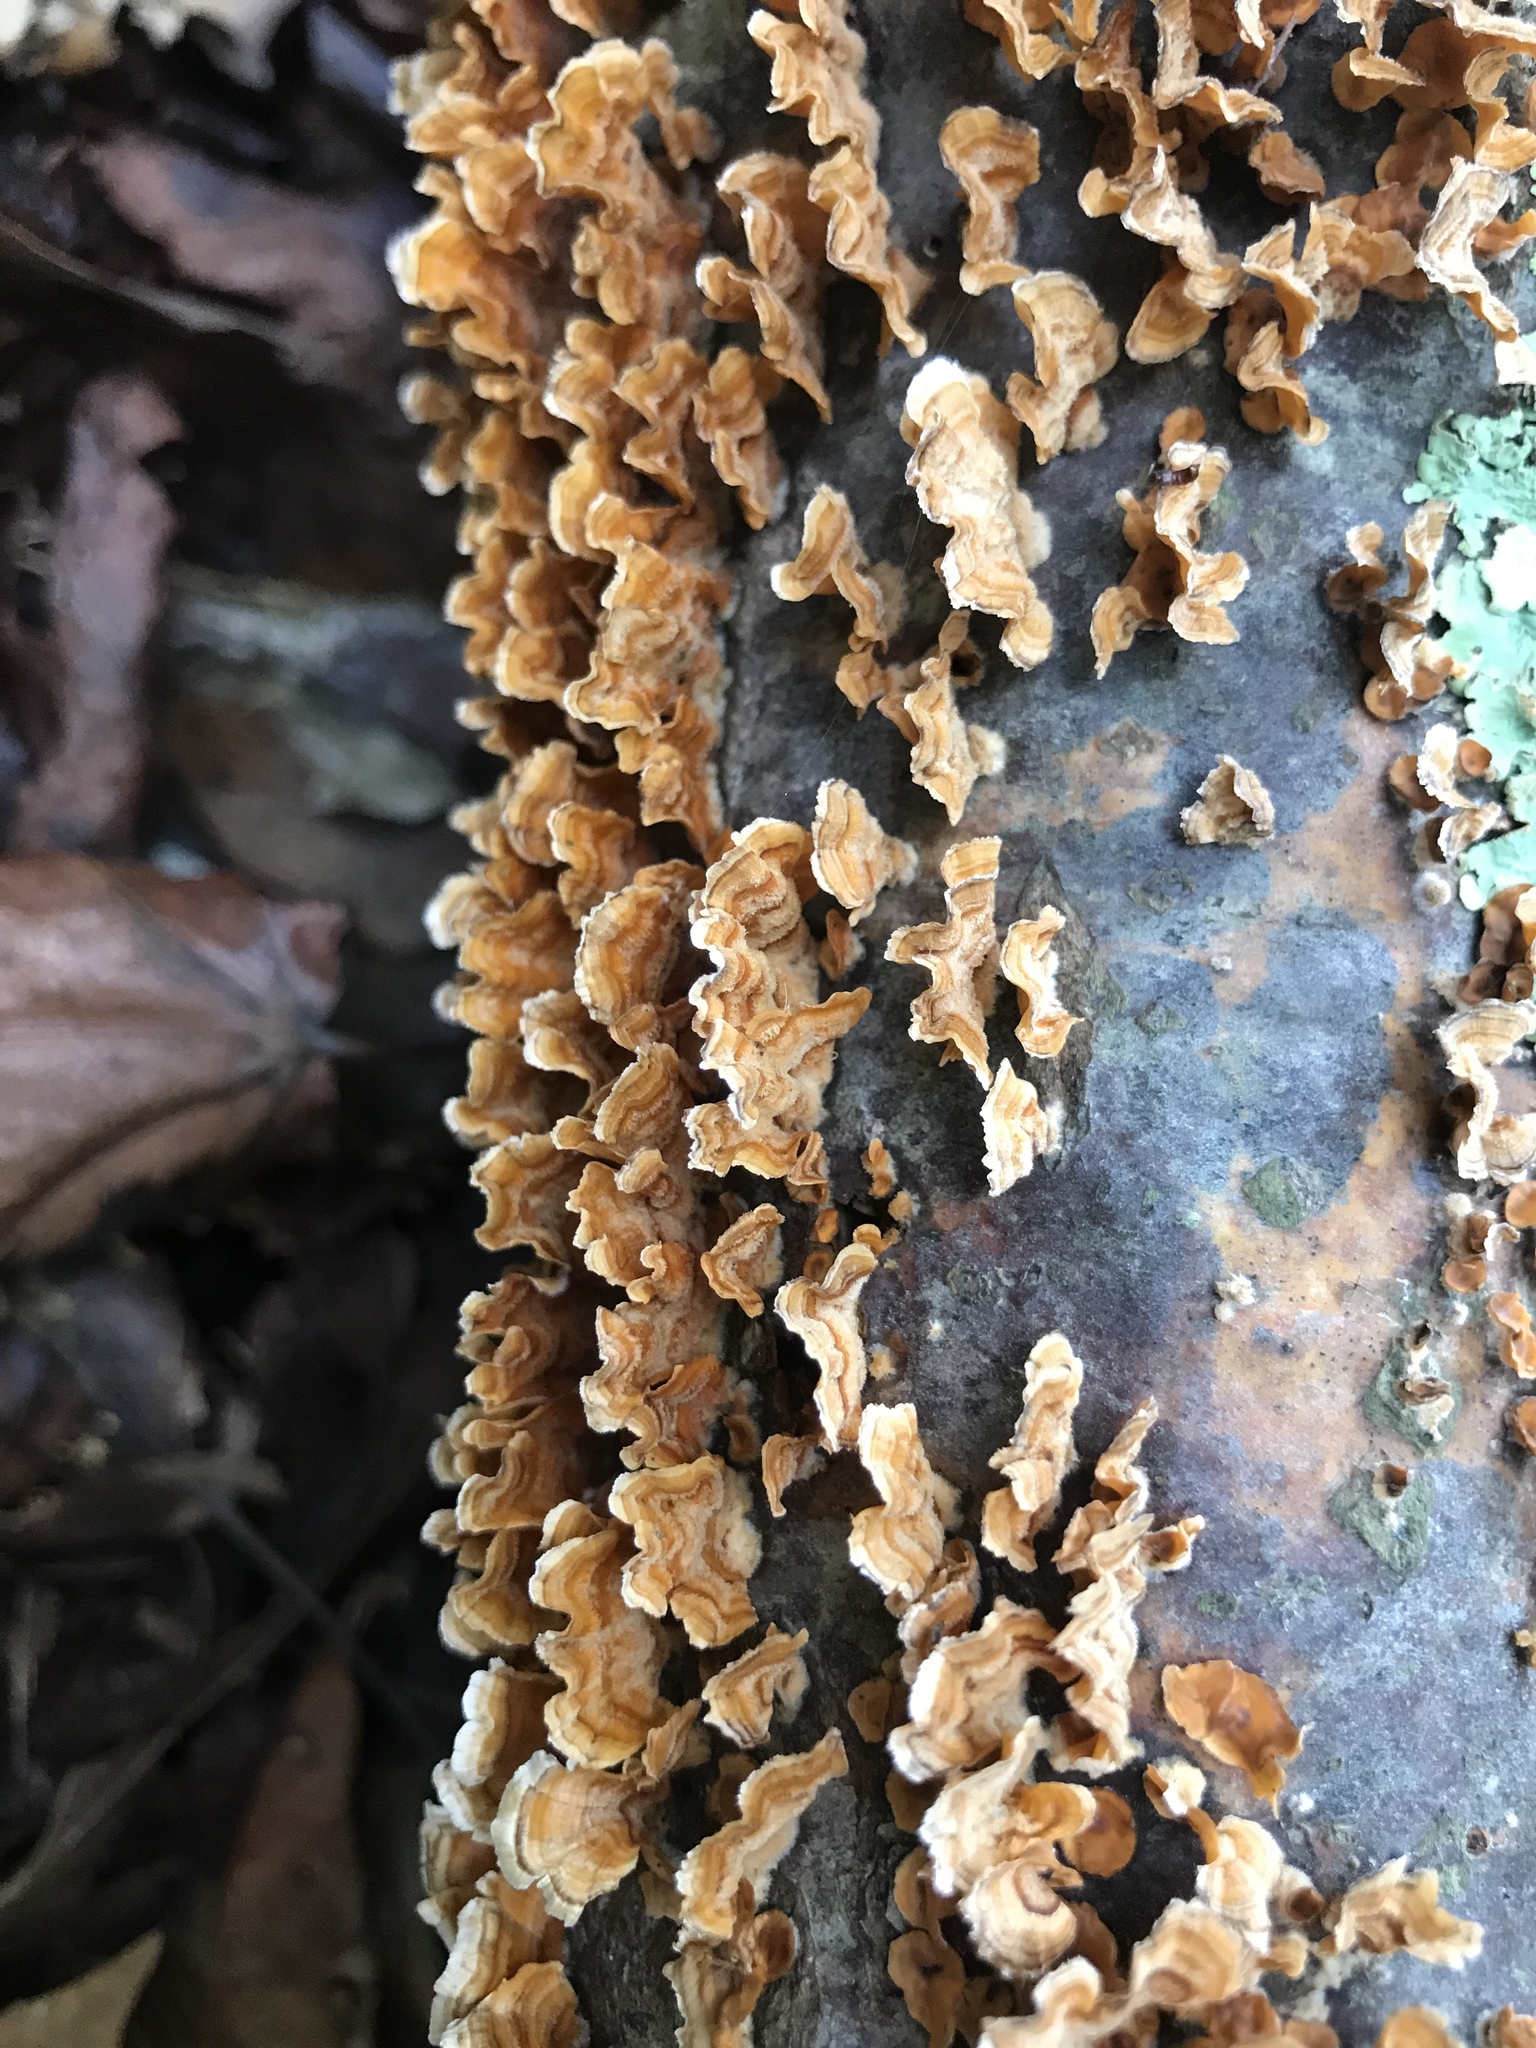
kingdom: Fungi
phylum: Basidiomycota
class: Agaricomycetes
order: Russulales
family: Stereaceae
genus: Stereum
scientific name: Stereum complicatum
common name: Crowded parchment
